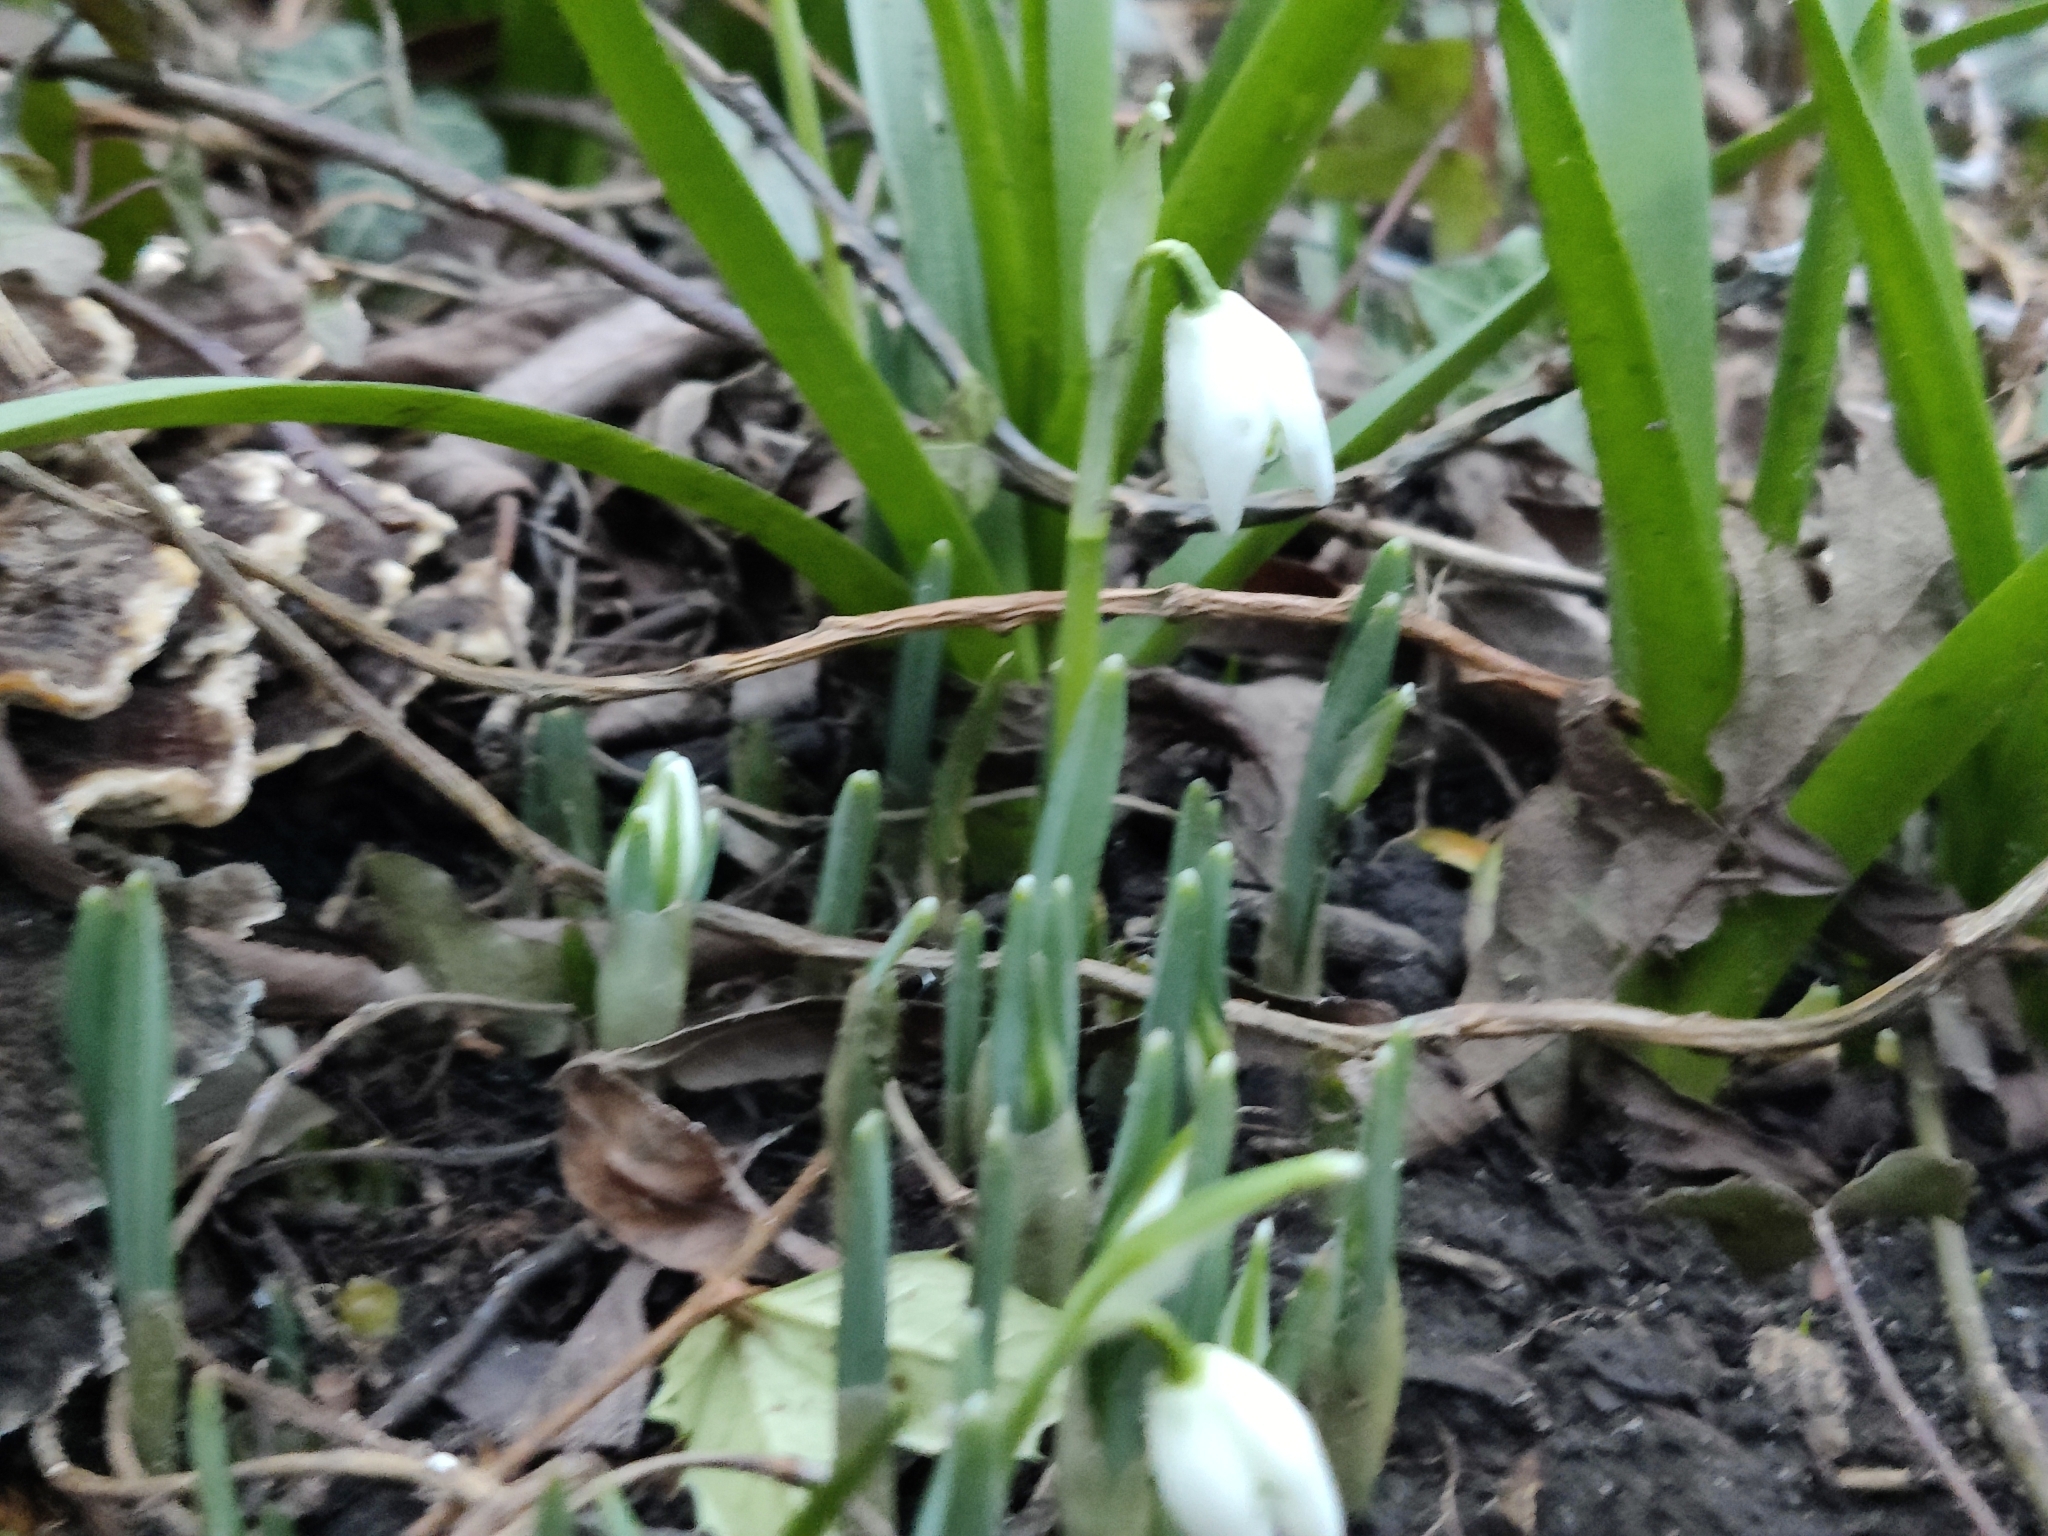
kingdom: Plantae
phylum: Tracheophyta
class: Liliopsida
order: Asparagales
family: Amaryllidaceae
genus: Galanthus
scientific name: Galanthus nivalis
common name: Snowdrop
